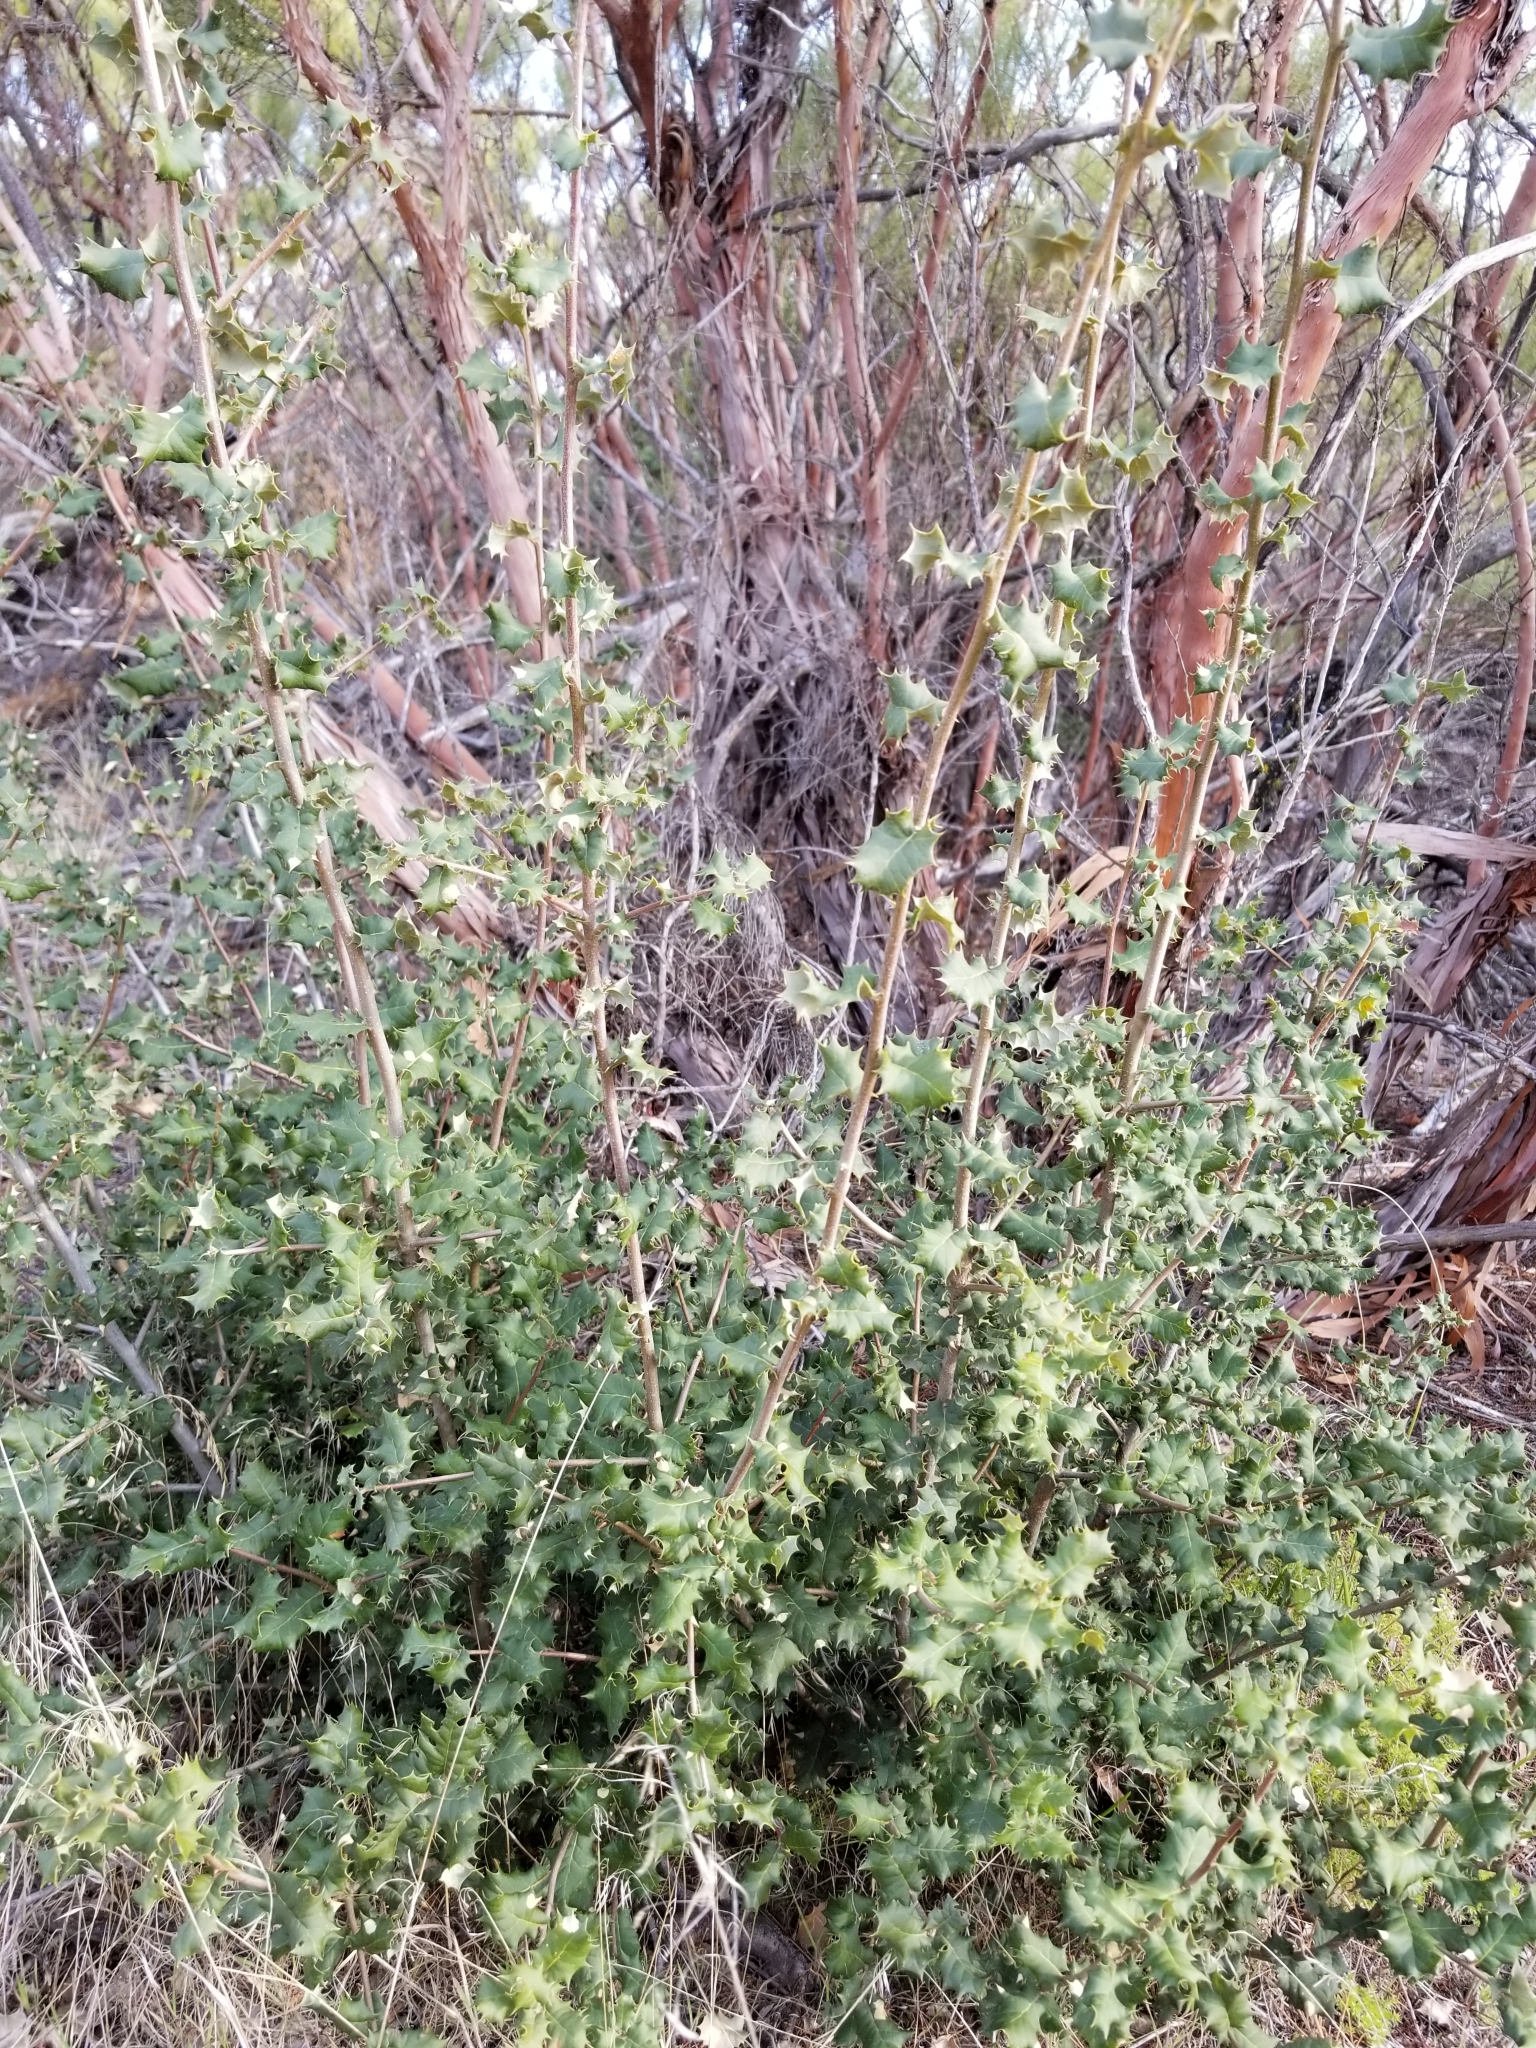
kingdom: Plantae
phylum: Tracheophyta
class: Magnoliopsida
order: Fagales
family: Fagaceae
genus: Quercus
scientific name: Quercus palmeri
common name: Dunn oak
